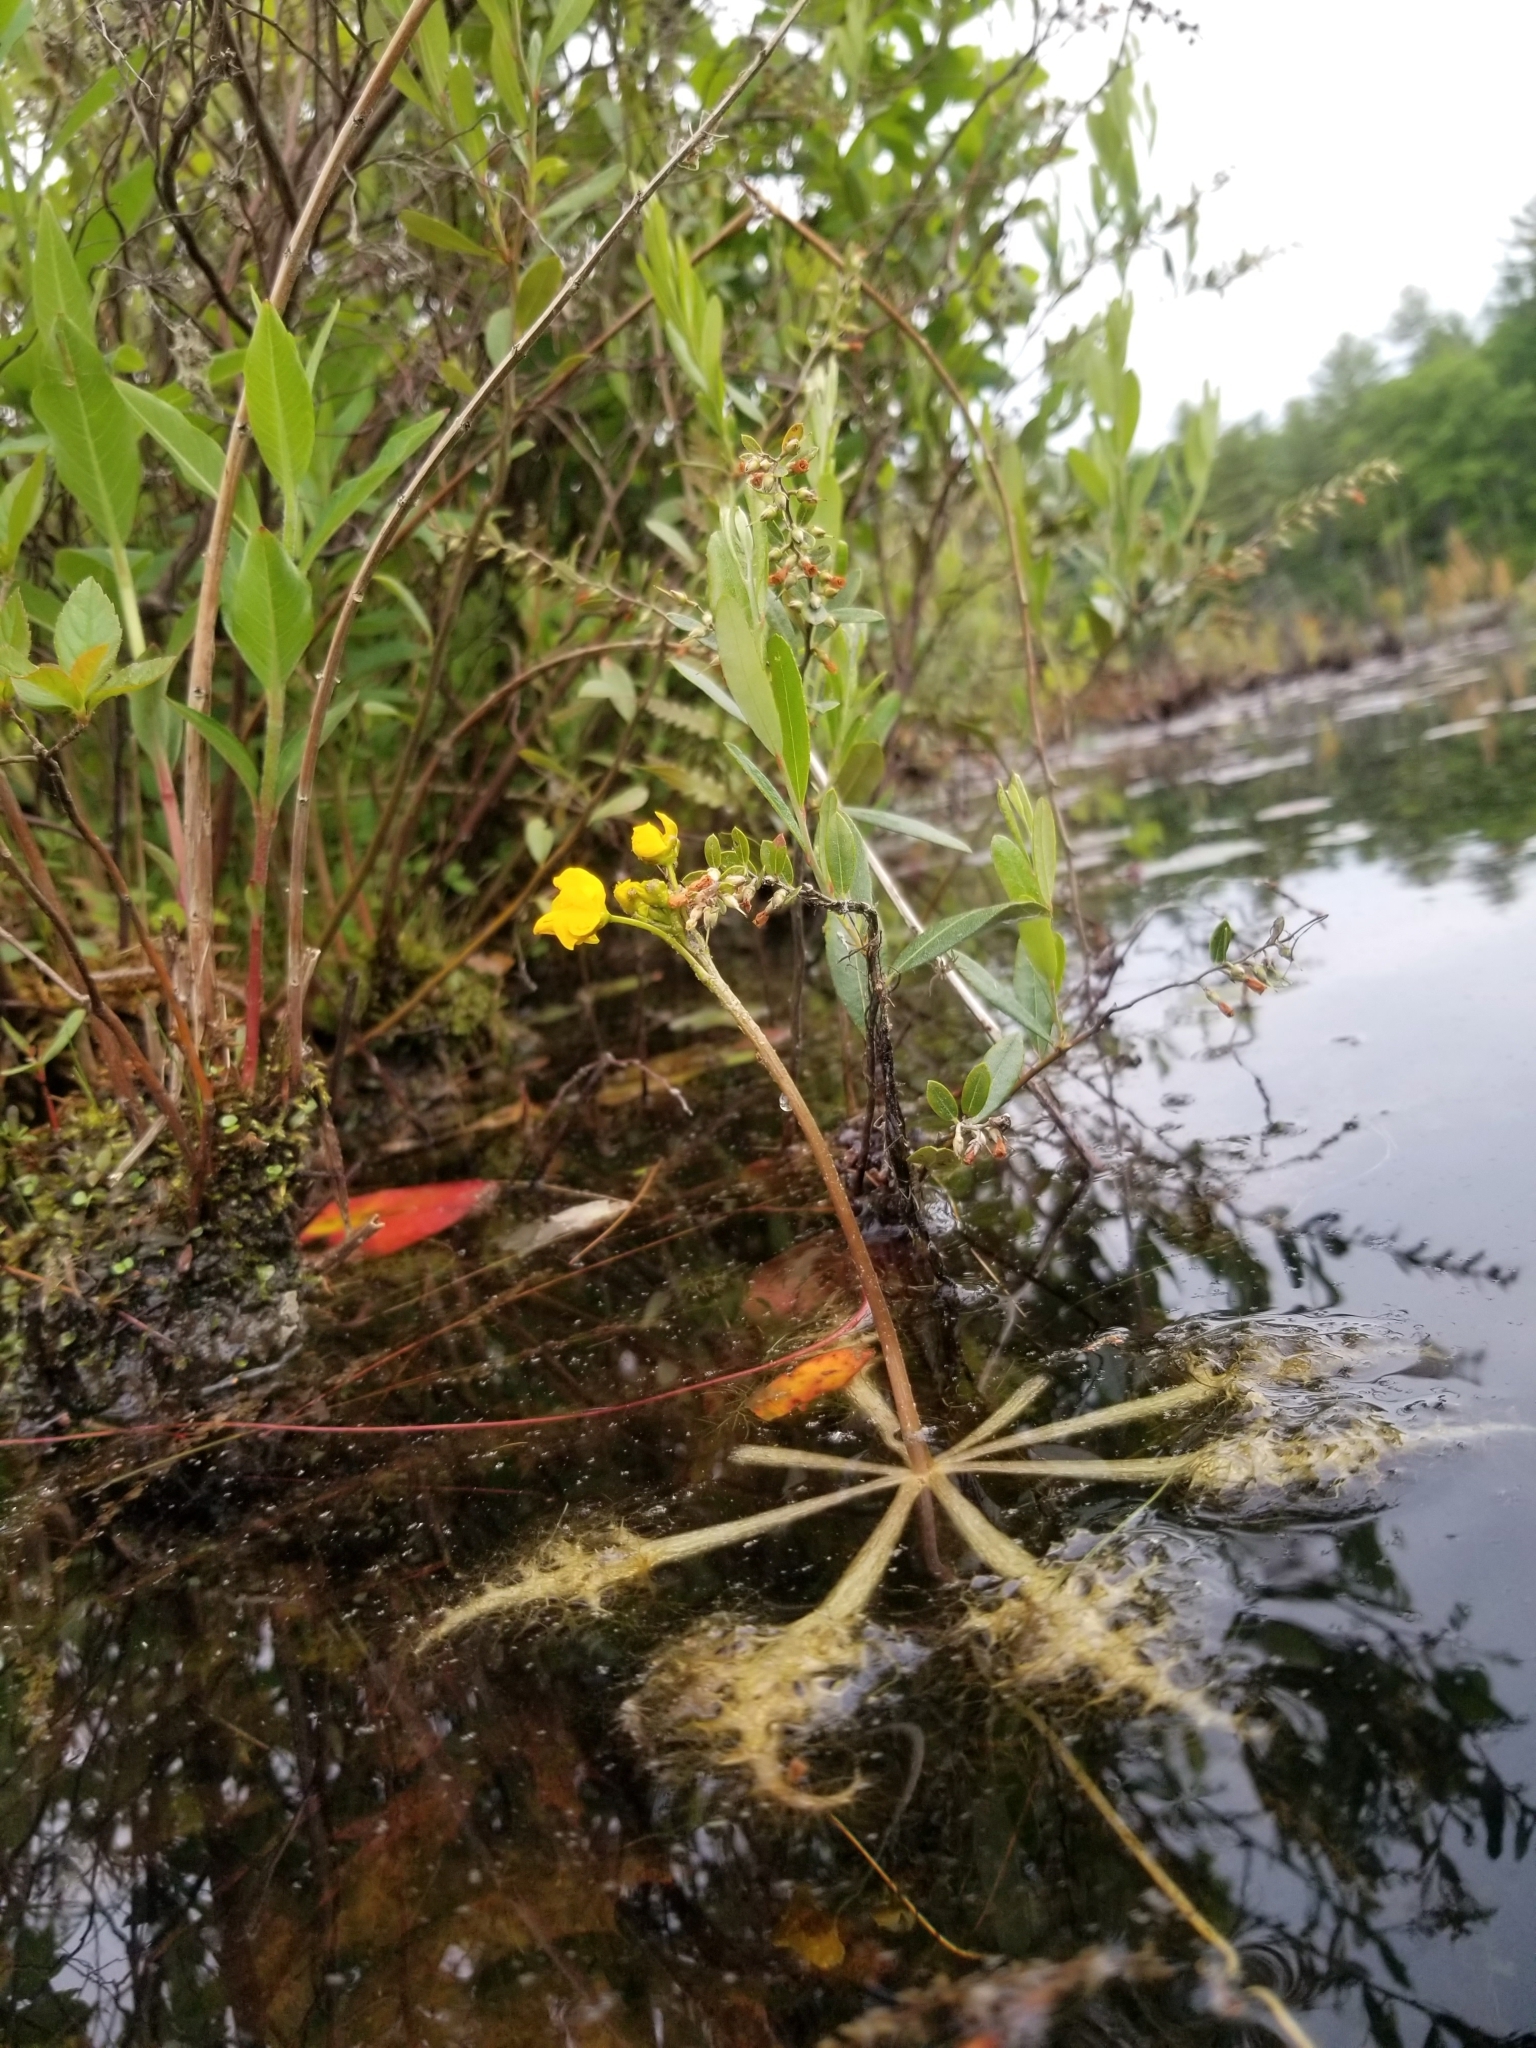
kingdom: Plantae
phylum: Tracheophyta
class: Magnoliopsida
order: Lamiales
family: Lentibulariaceae
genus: Utricularia
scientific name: Utricularia inflata
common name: Floating bladderwort
